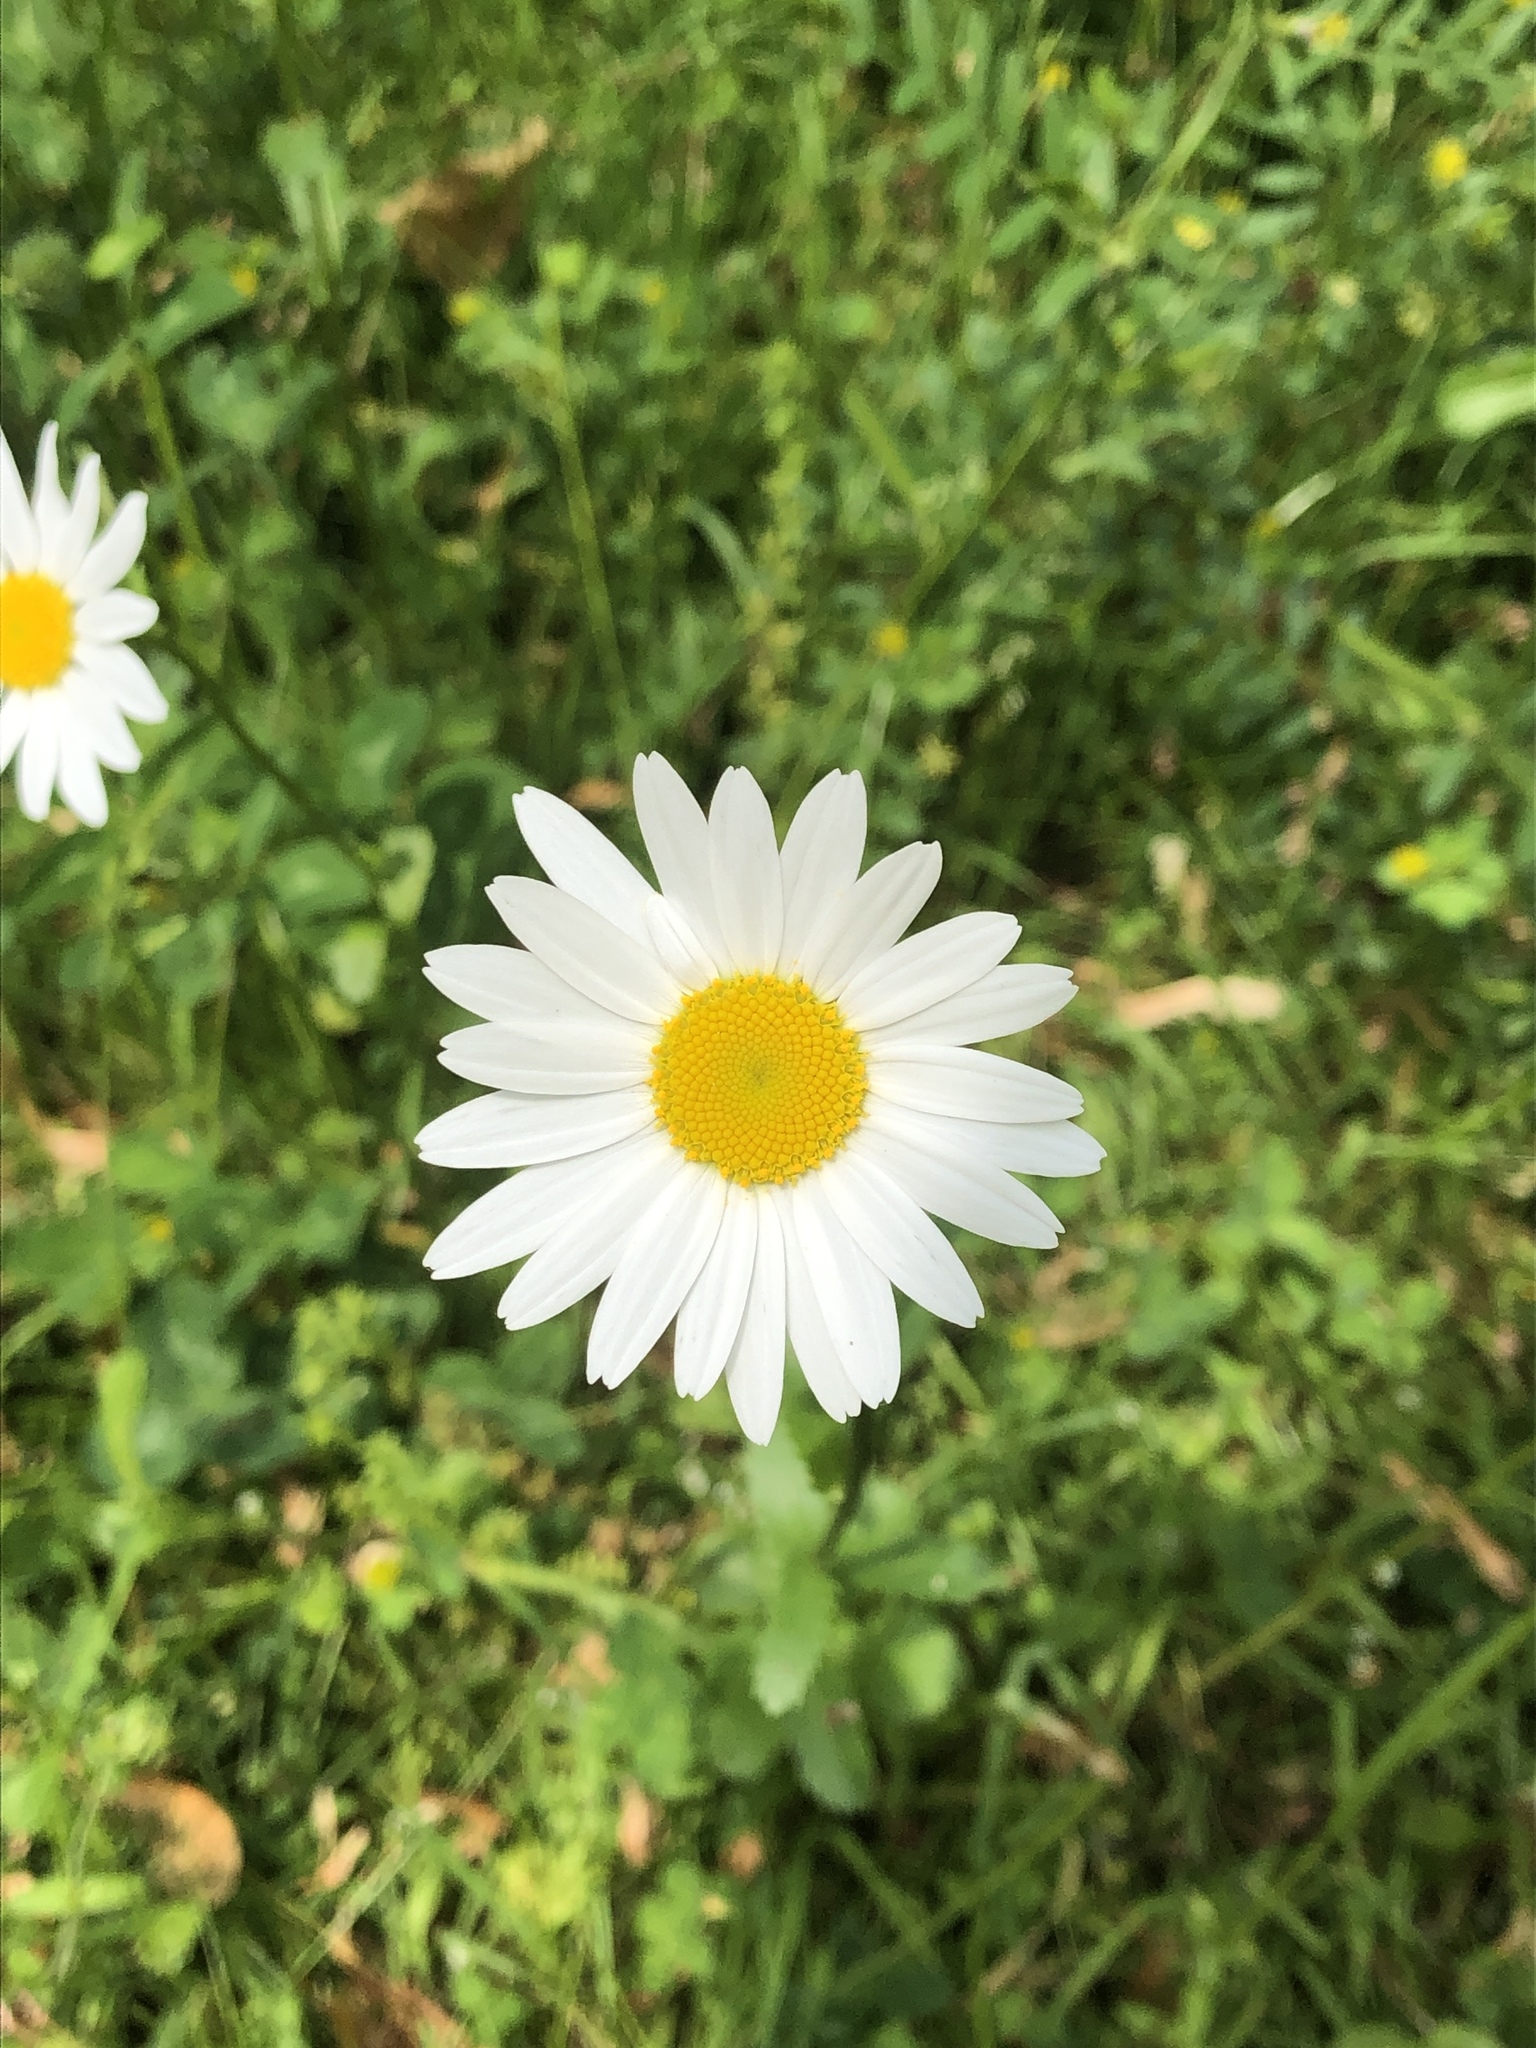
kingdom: Plantae
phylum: Tracheophyta
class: Magnoliopsida
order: Asterales
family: Asteraceae
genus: Leucanthemum
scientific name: Leucanthemum vulgare
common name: Oxeye daisy
